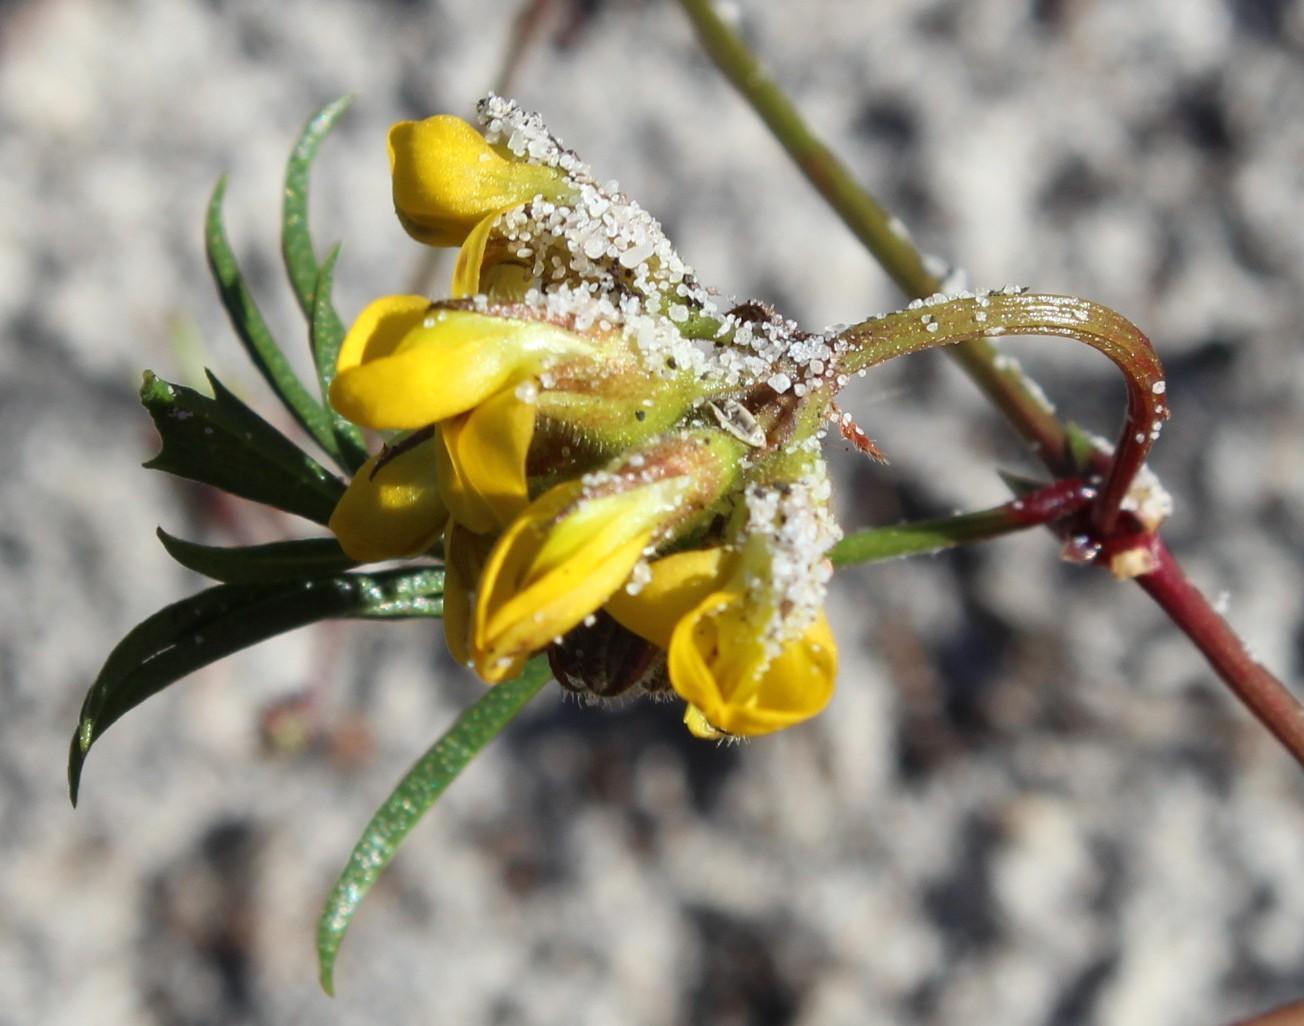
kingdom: Plantae
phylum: Tracheophyta
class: Magnoliopsida
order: Fabales
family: Fabaceae
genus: Rhynchosia
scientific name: Rhynchosia ferulifolia
